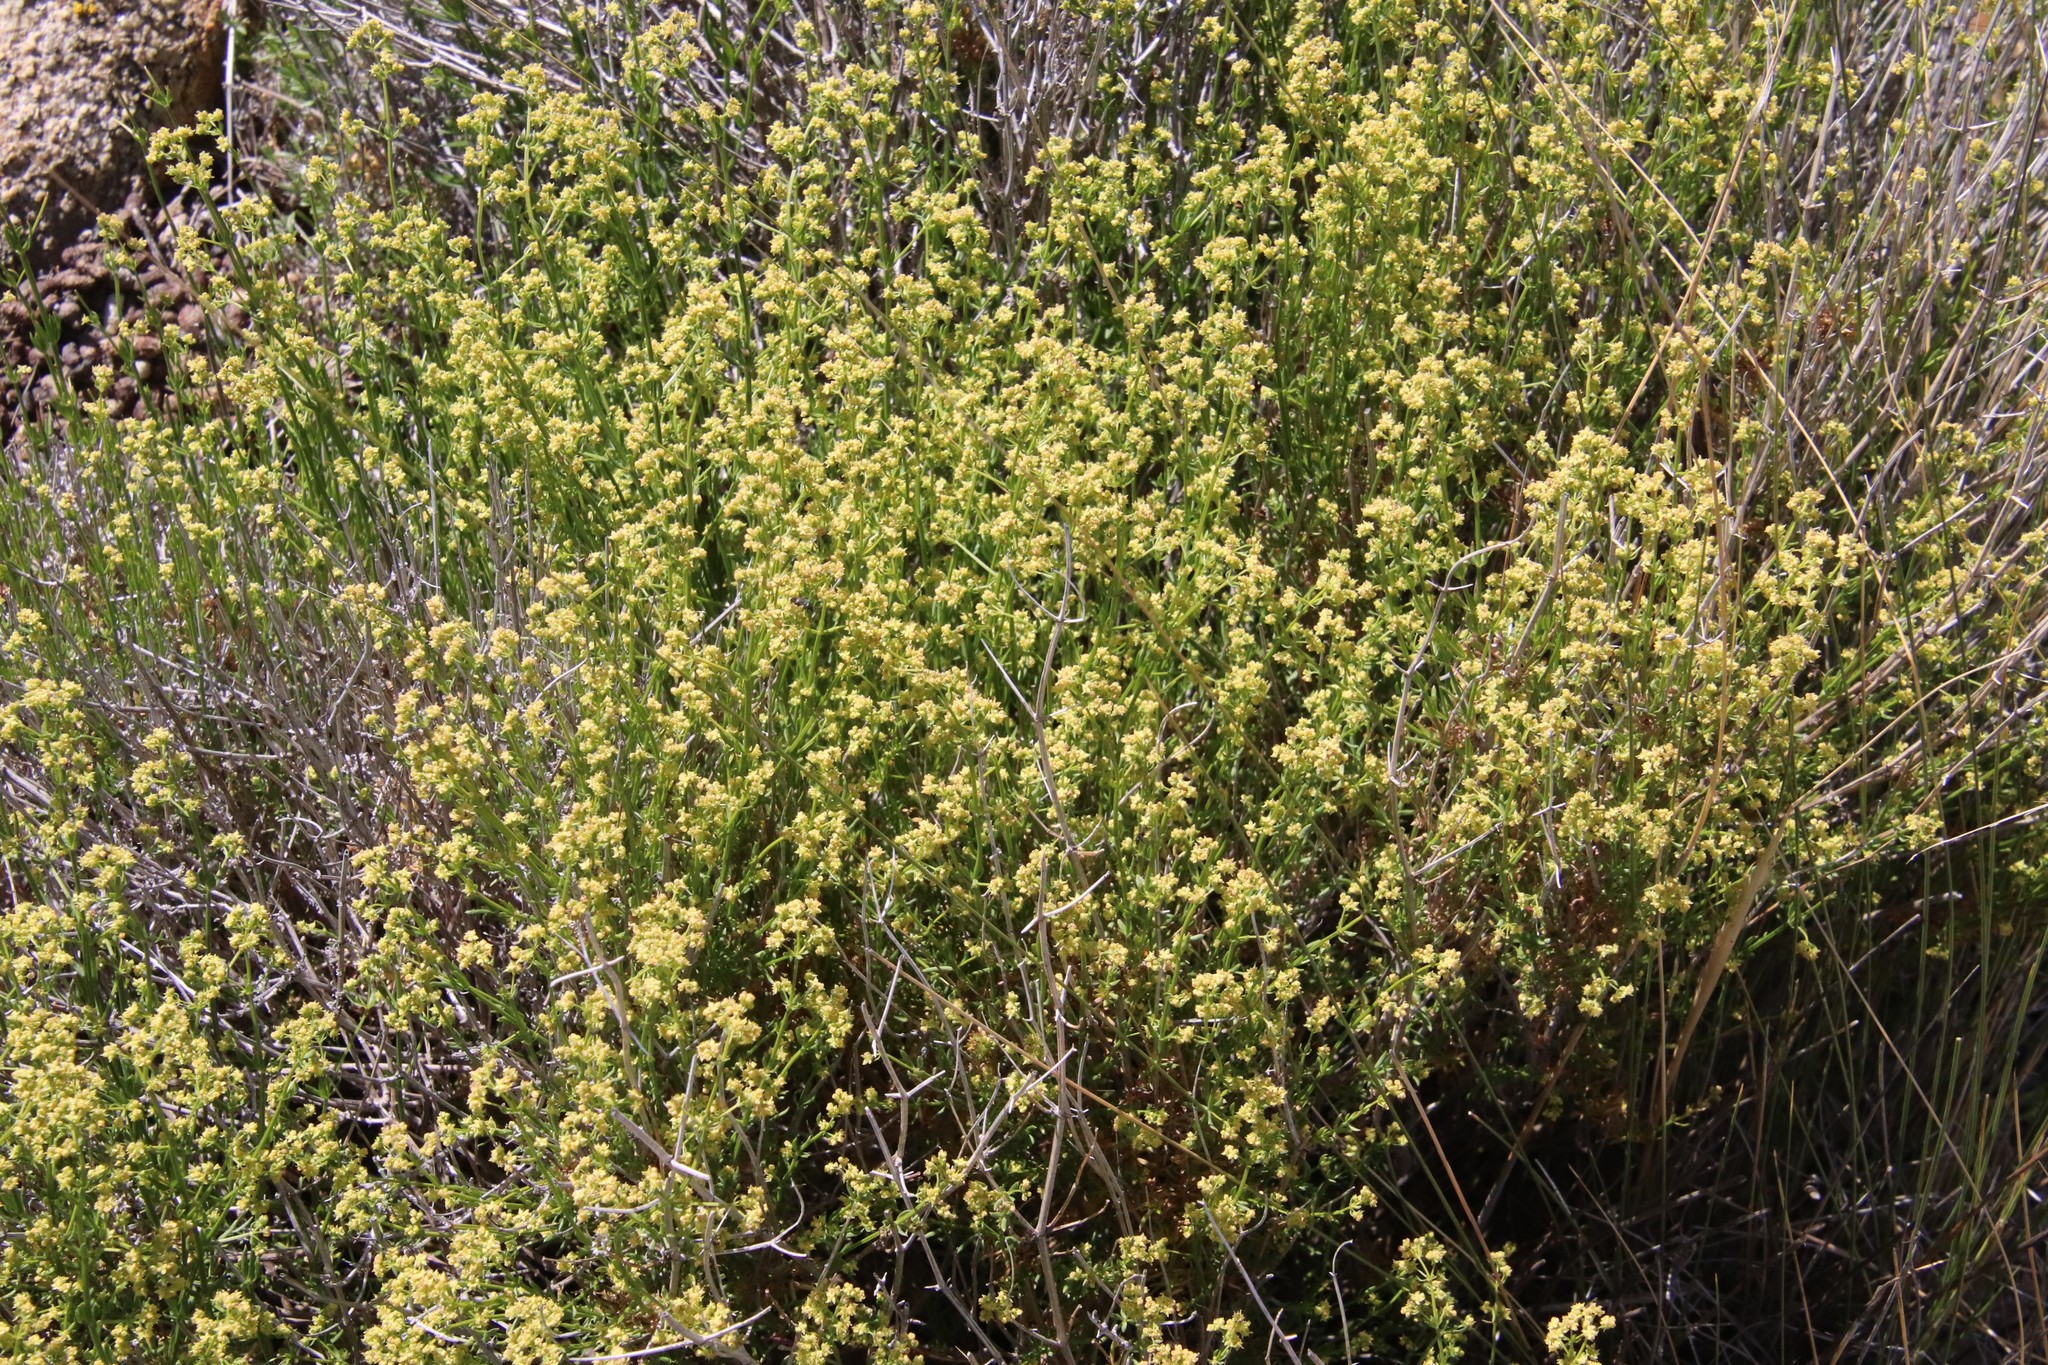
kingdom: Plantae
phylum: Tracheophyta
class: Magnoliopsida
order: Gentianales
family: Rubiaceae
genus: Galium
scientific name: Galium angustifolium
